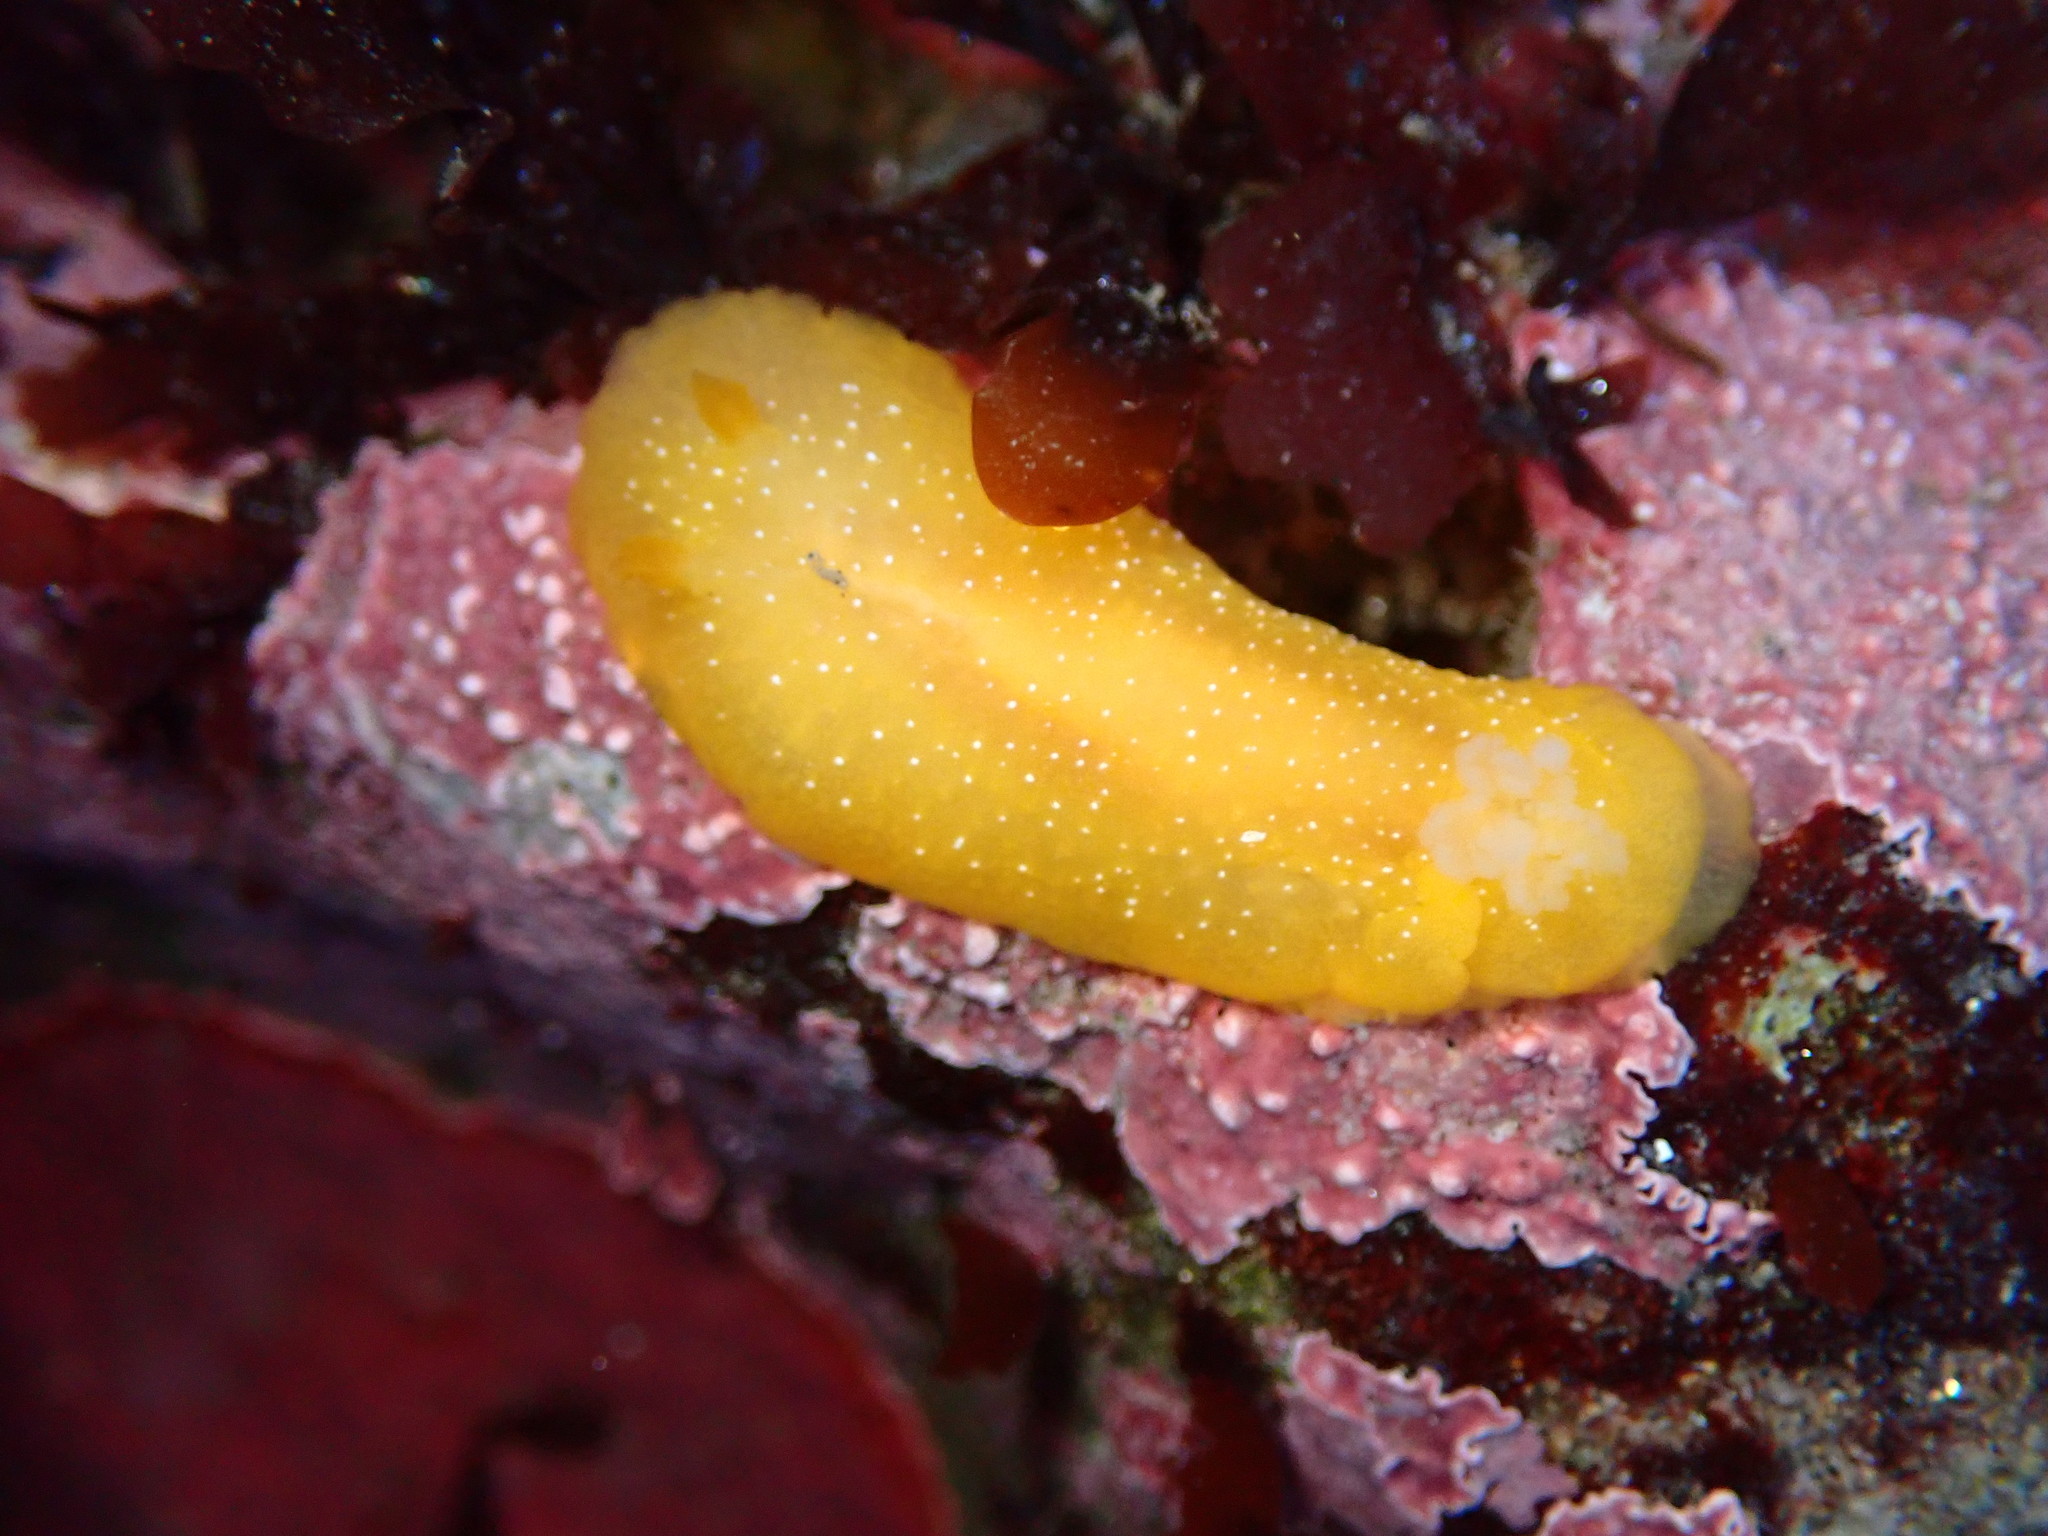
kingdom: Animalia
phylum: Mollusca
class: Gastropoda
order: Nudibranchia
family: Dendrodorididae
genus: Doriopsilla
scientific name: Doriopsilla fulva
